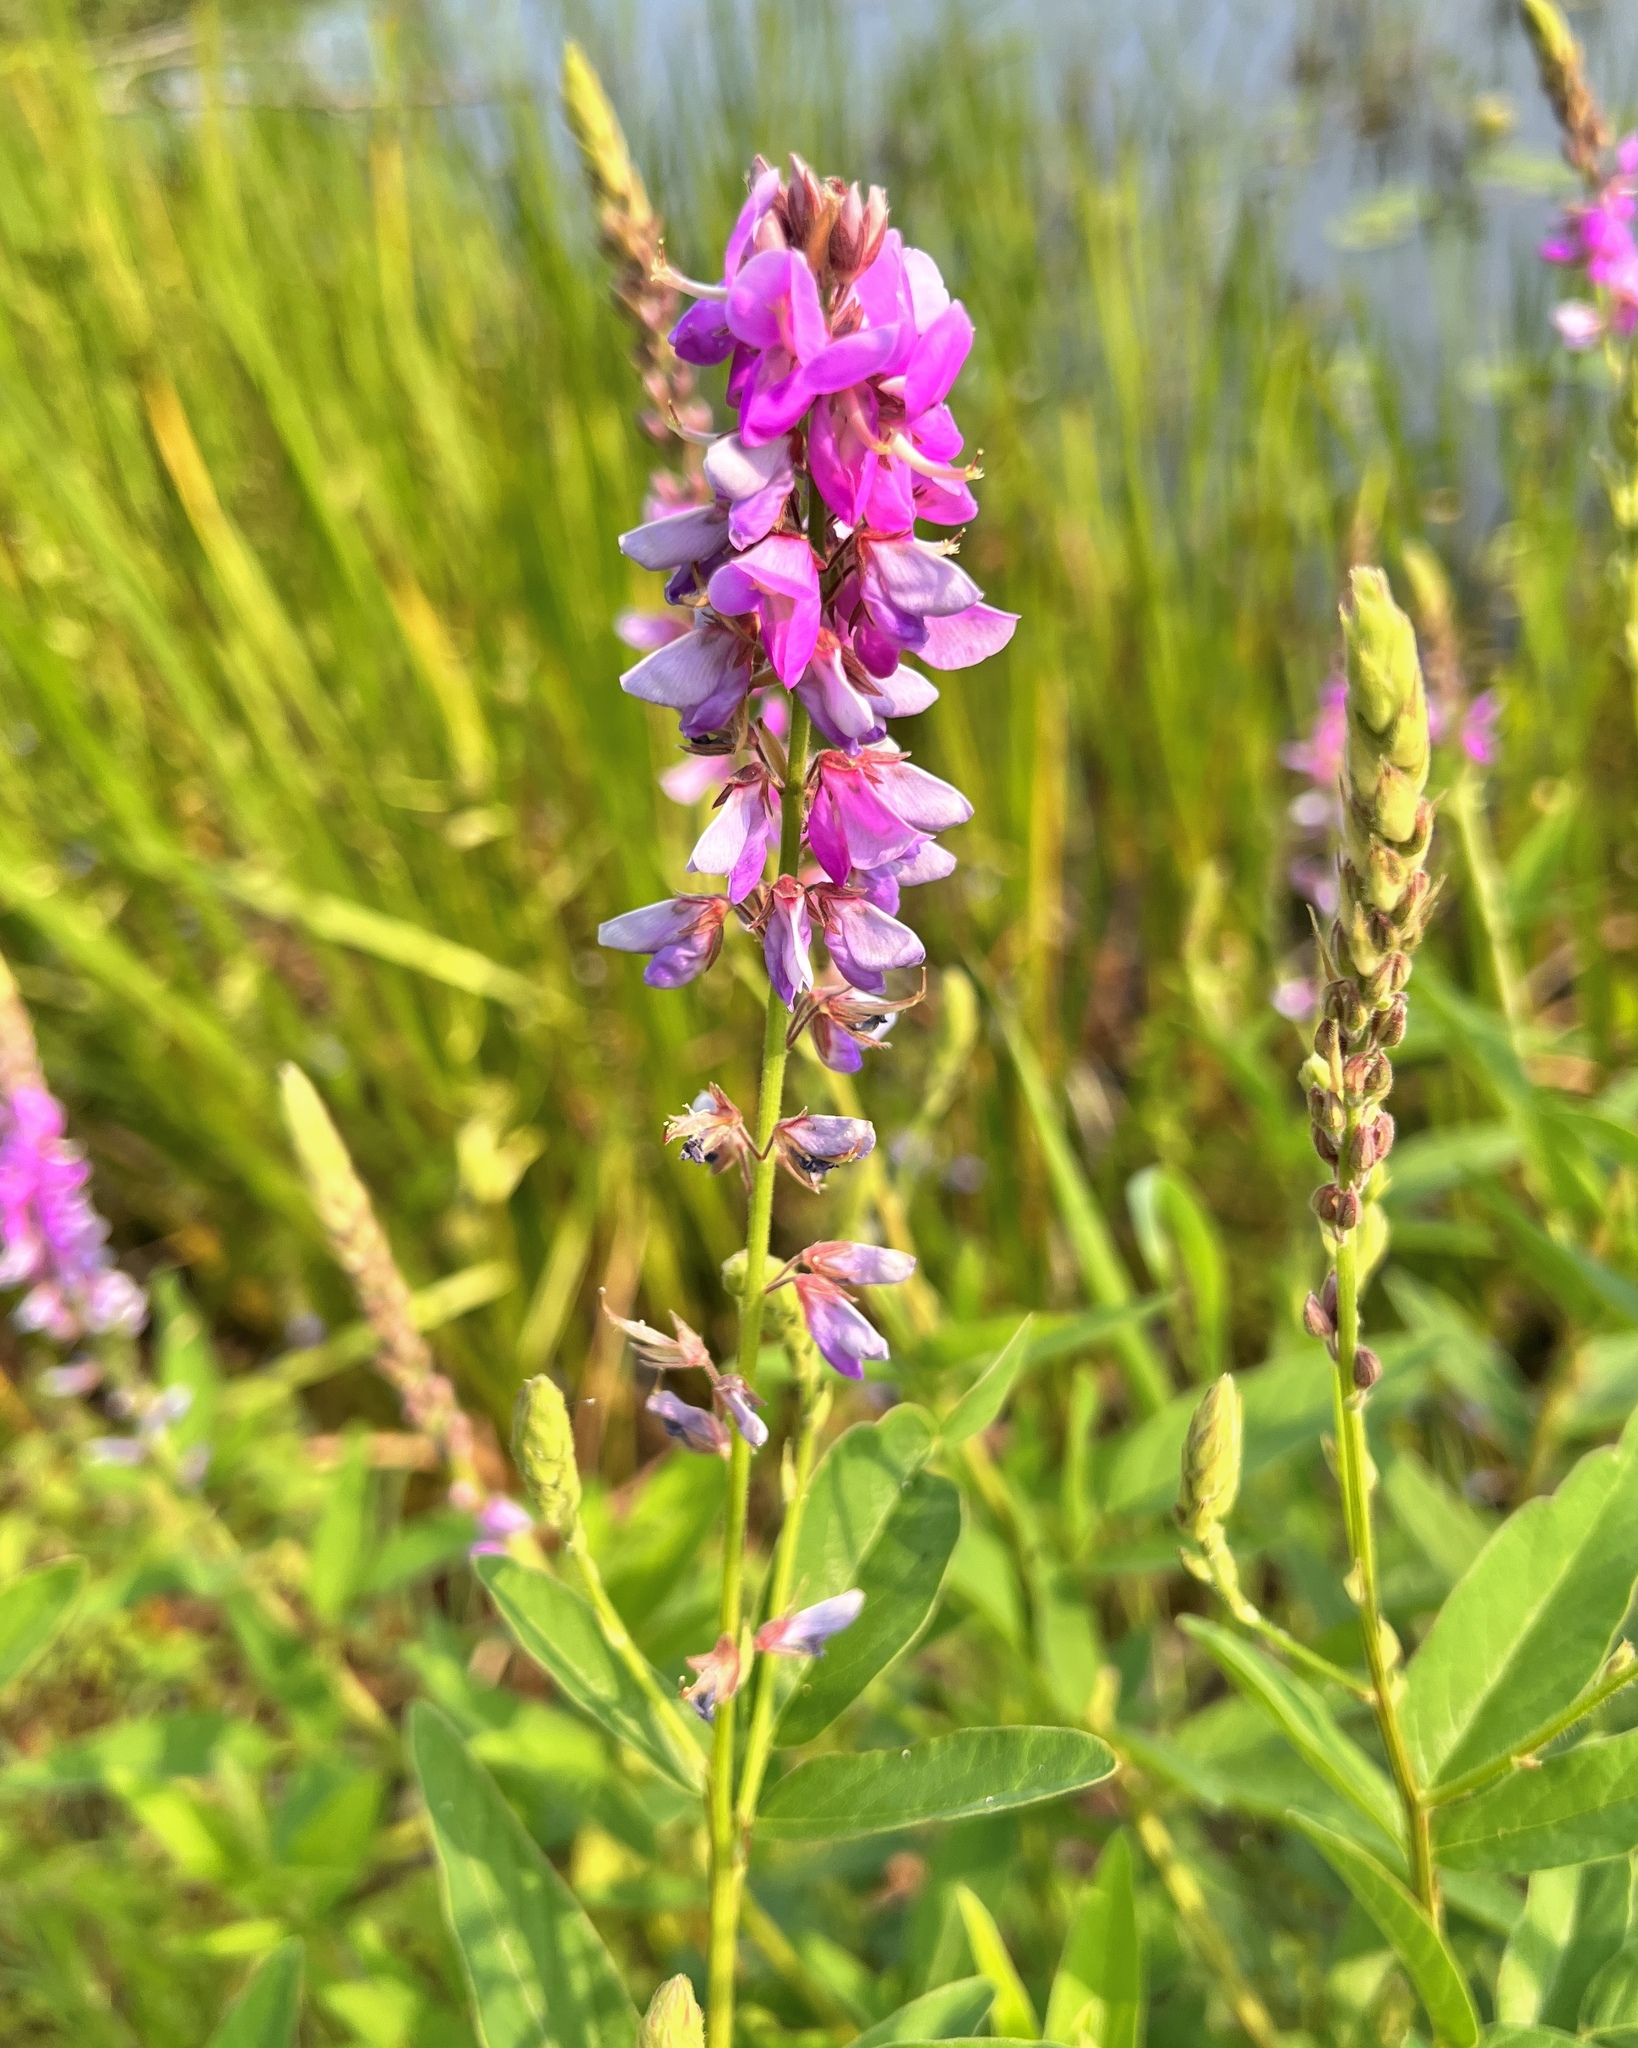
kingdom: Plantae
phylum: Tracheophyta
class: Magnoliopsida
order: Fabales
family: Fabaceae
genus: Desmodium
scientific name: Desmodium canadense
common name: Canada tick-trefoil
